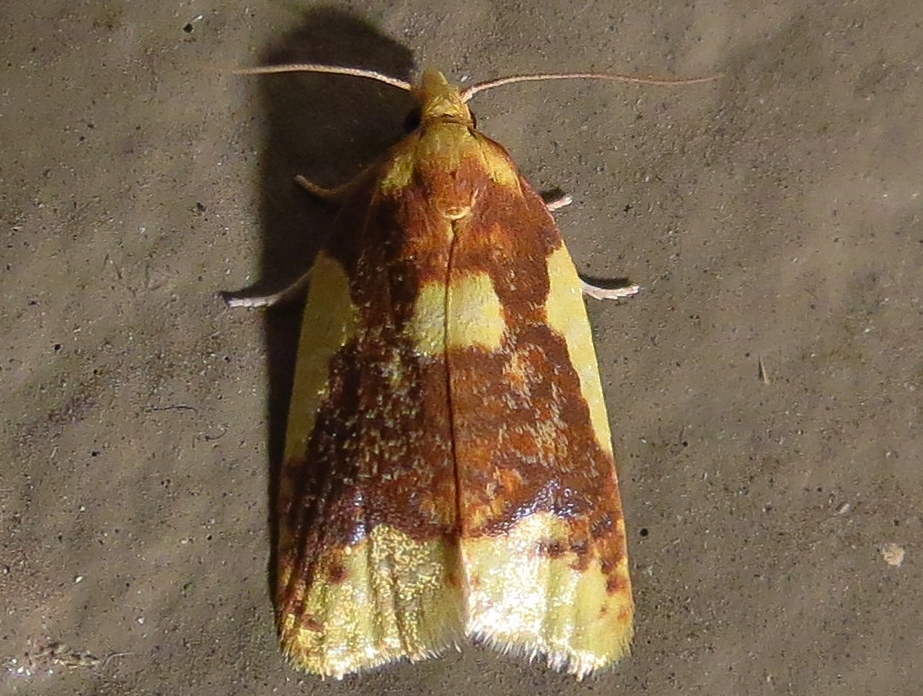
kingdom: Animalia
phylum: Arthropoda
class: Insecta
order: Lepidoptera
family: Tortricidae
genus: Sparganothis
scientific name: Sparganothis pulcherrimana
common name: Beautiful sparganothis
